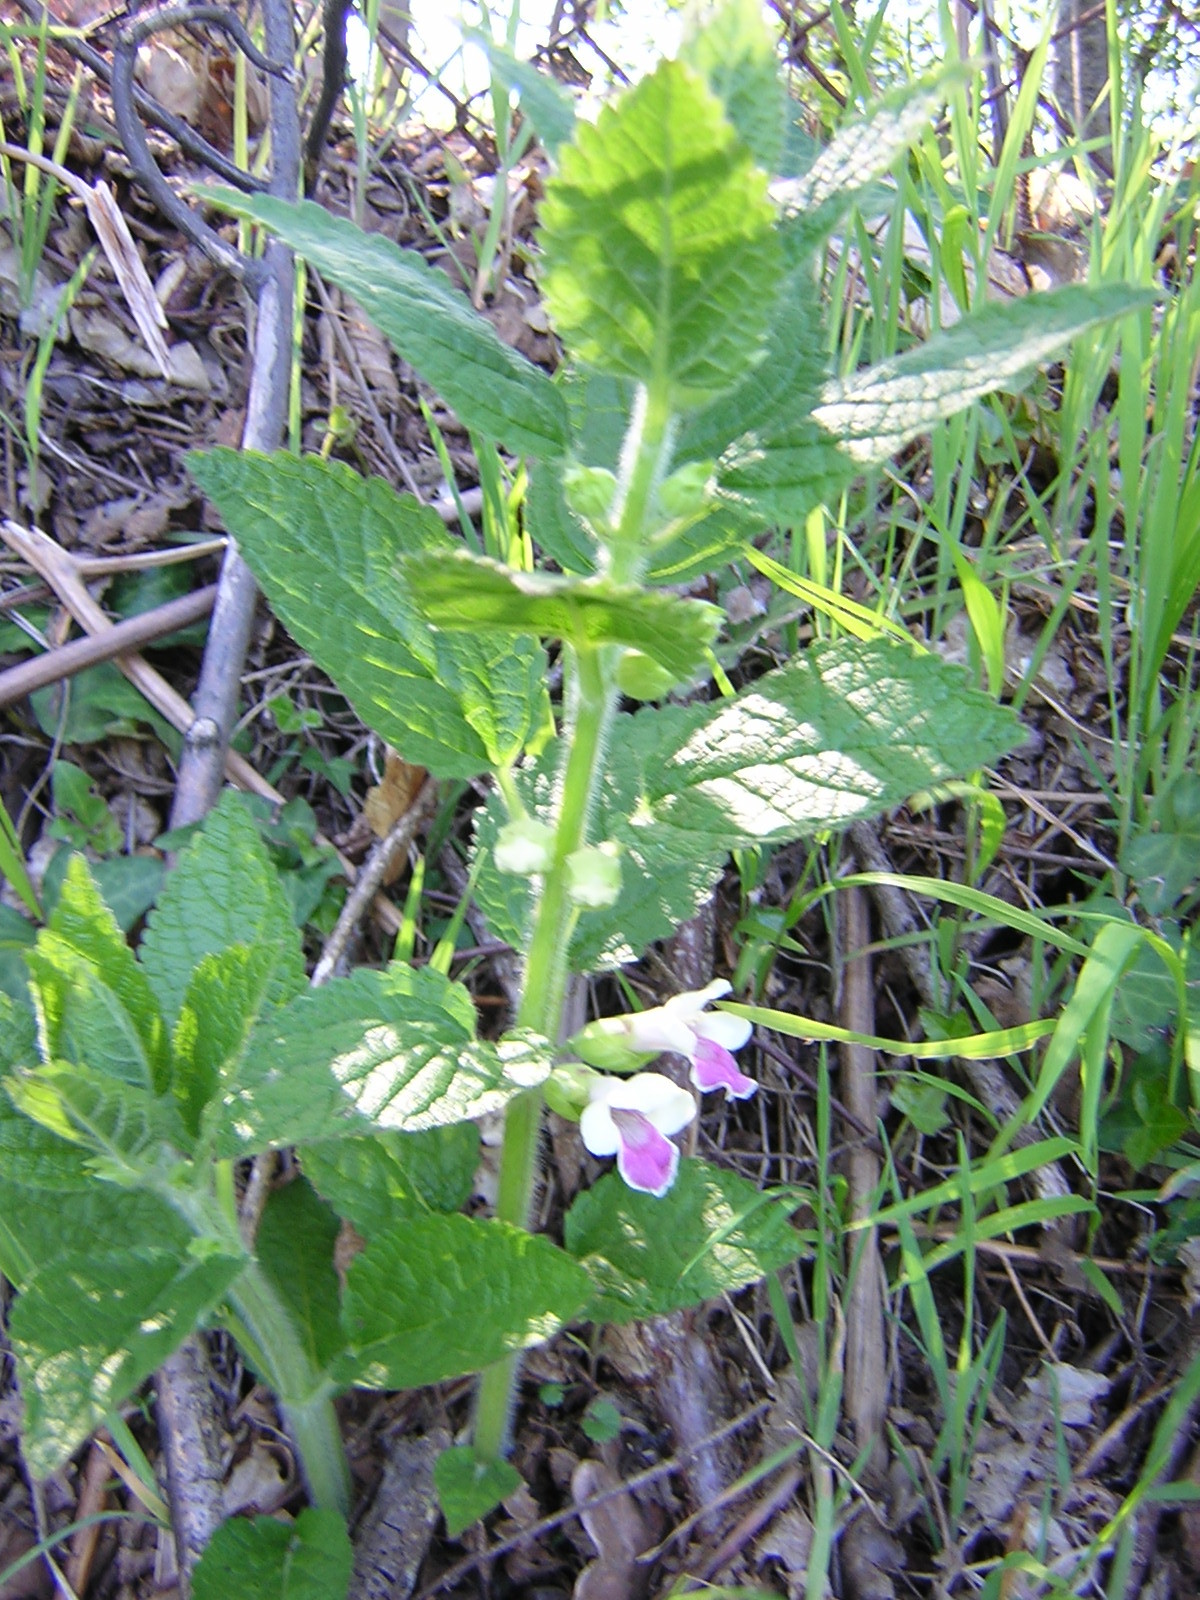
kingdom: Plantae
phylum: Tracheophyta
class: Magnoliopsida
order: Lamiales
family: Lamiaceae
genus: Melittis
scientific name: Melittis melissophyllum
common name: Bastard balm
